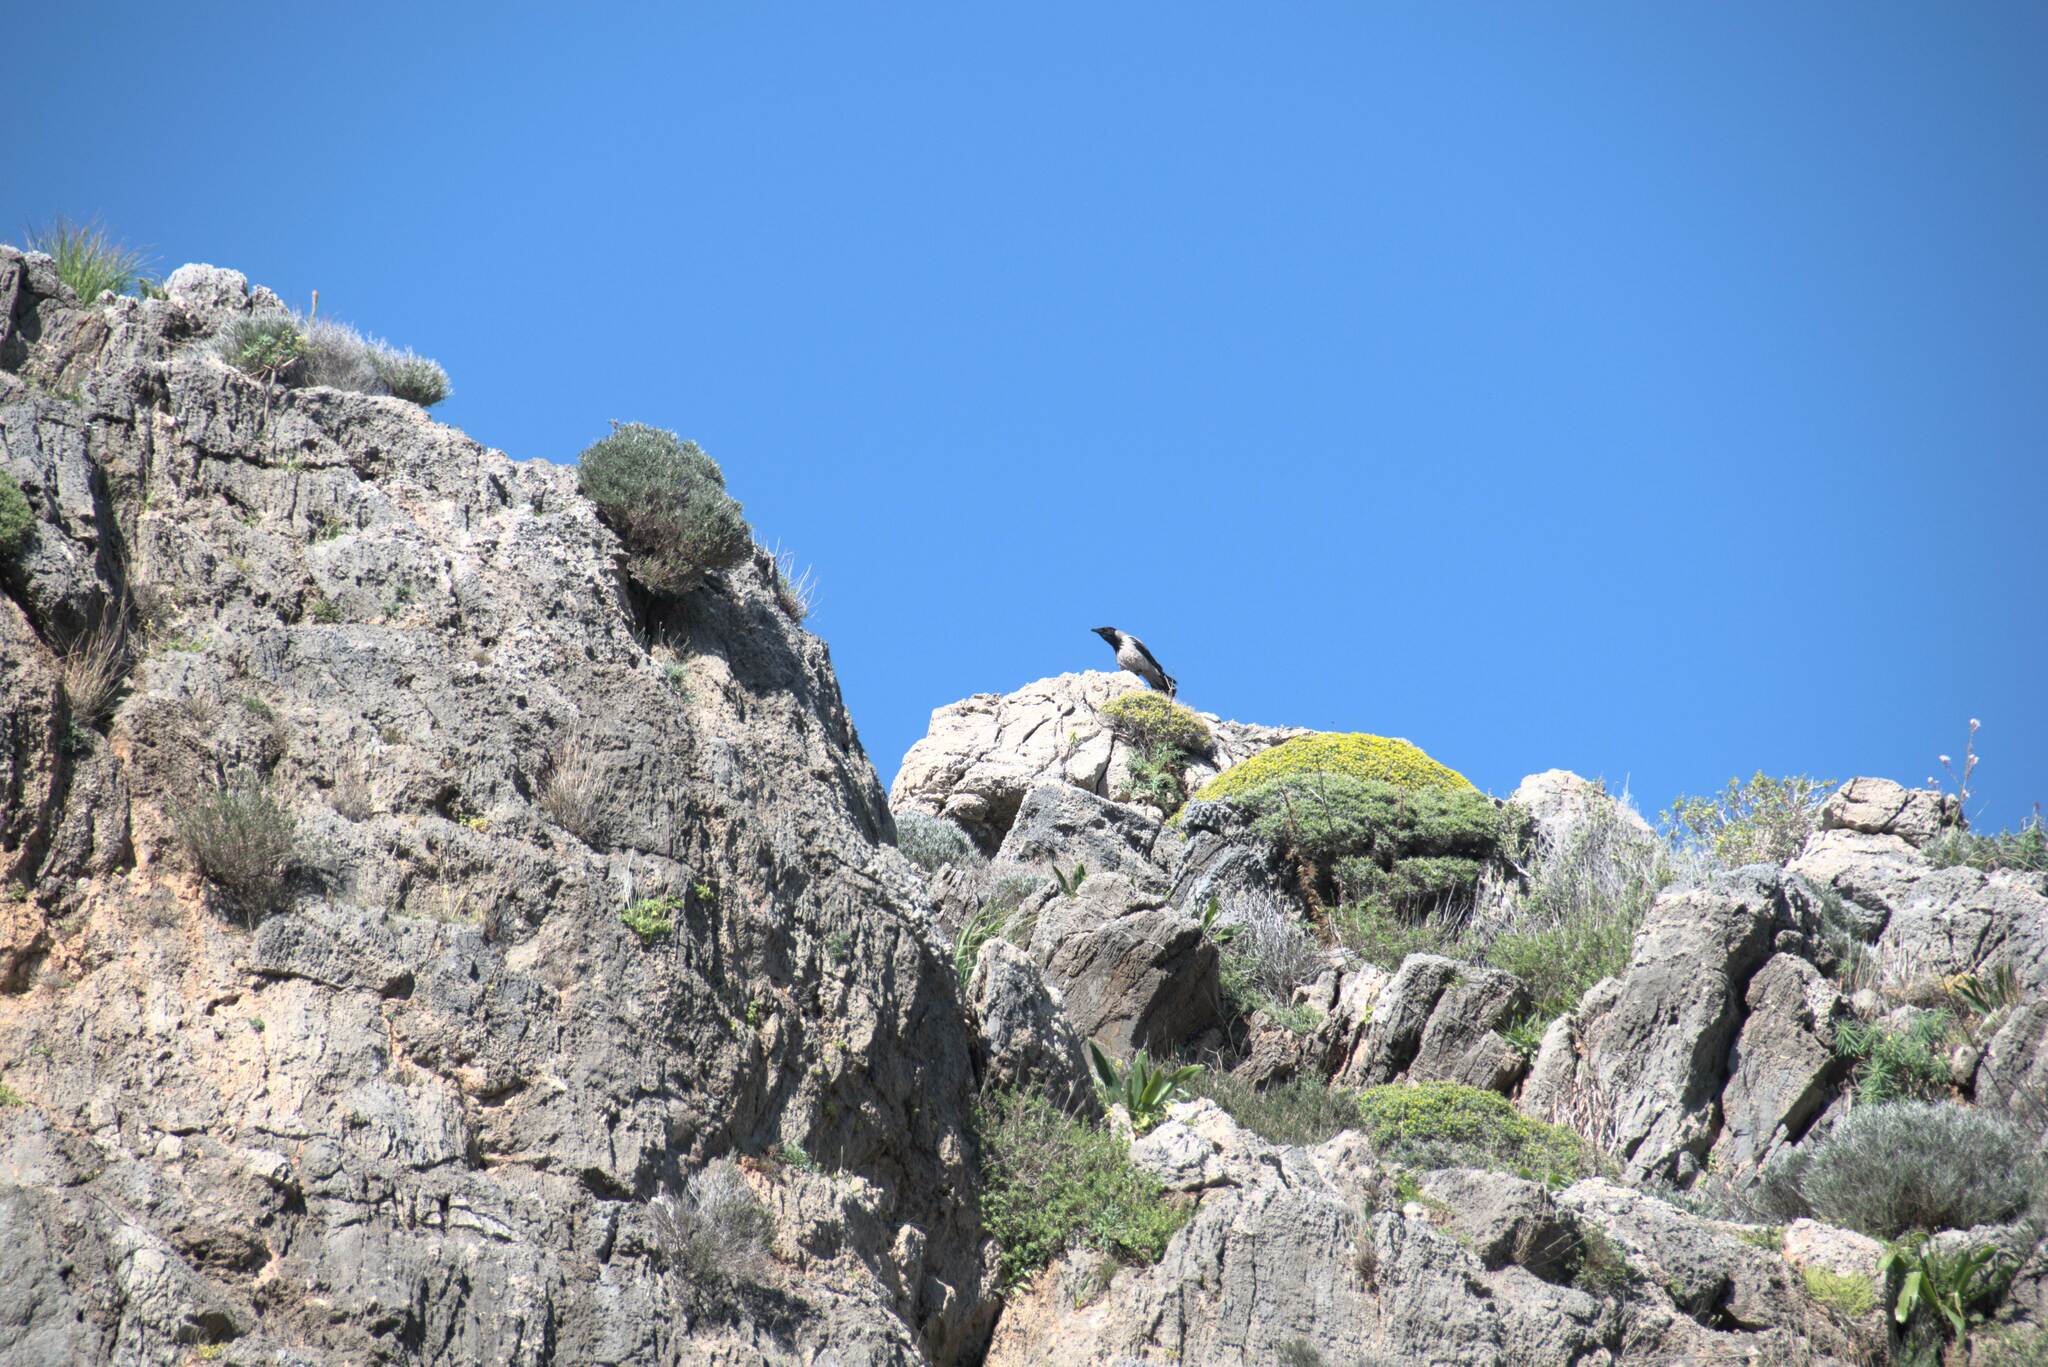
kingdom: Animalia
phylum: Chordata
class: Aves
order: Passeriformes
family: Corvidae
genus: Corvus
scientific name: Corvus cornix
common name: Hooded crow
